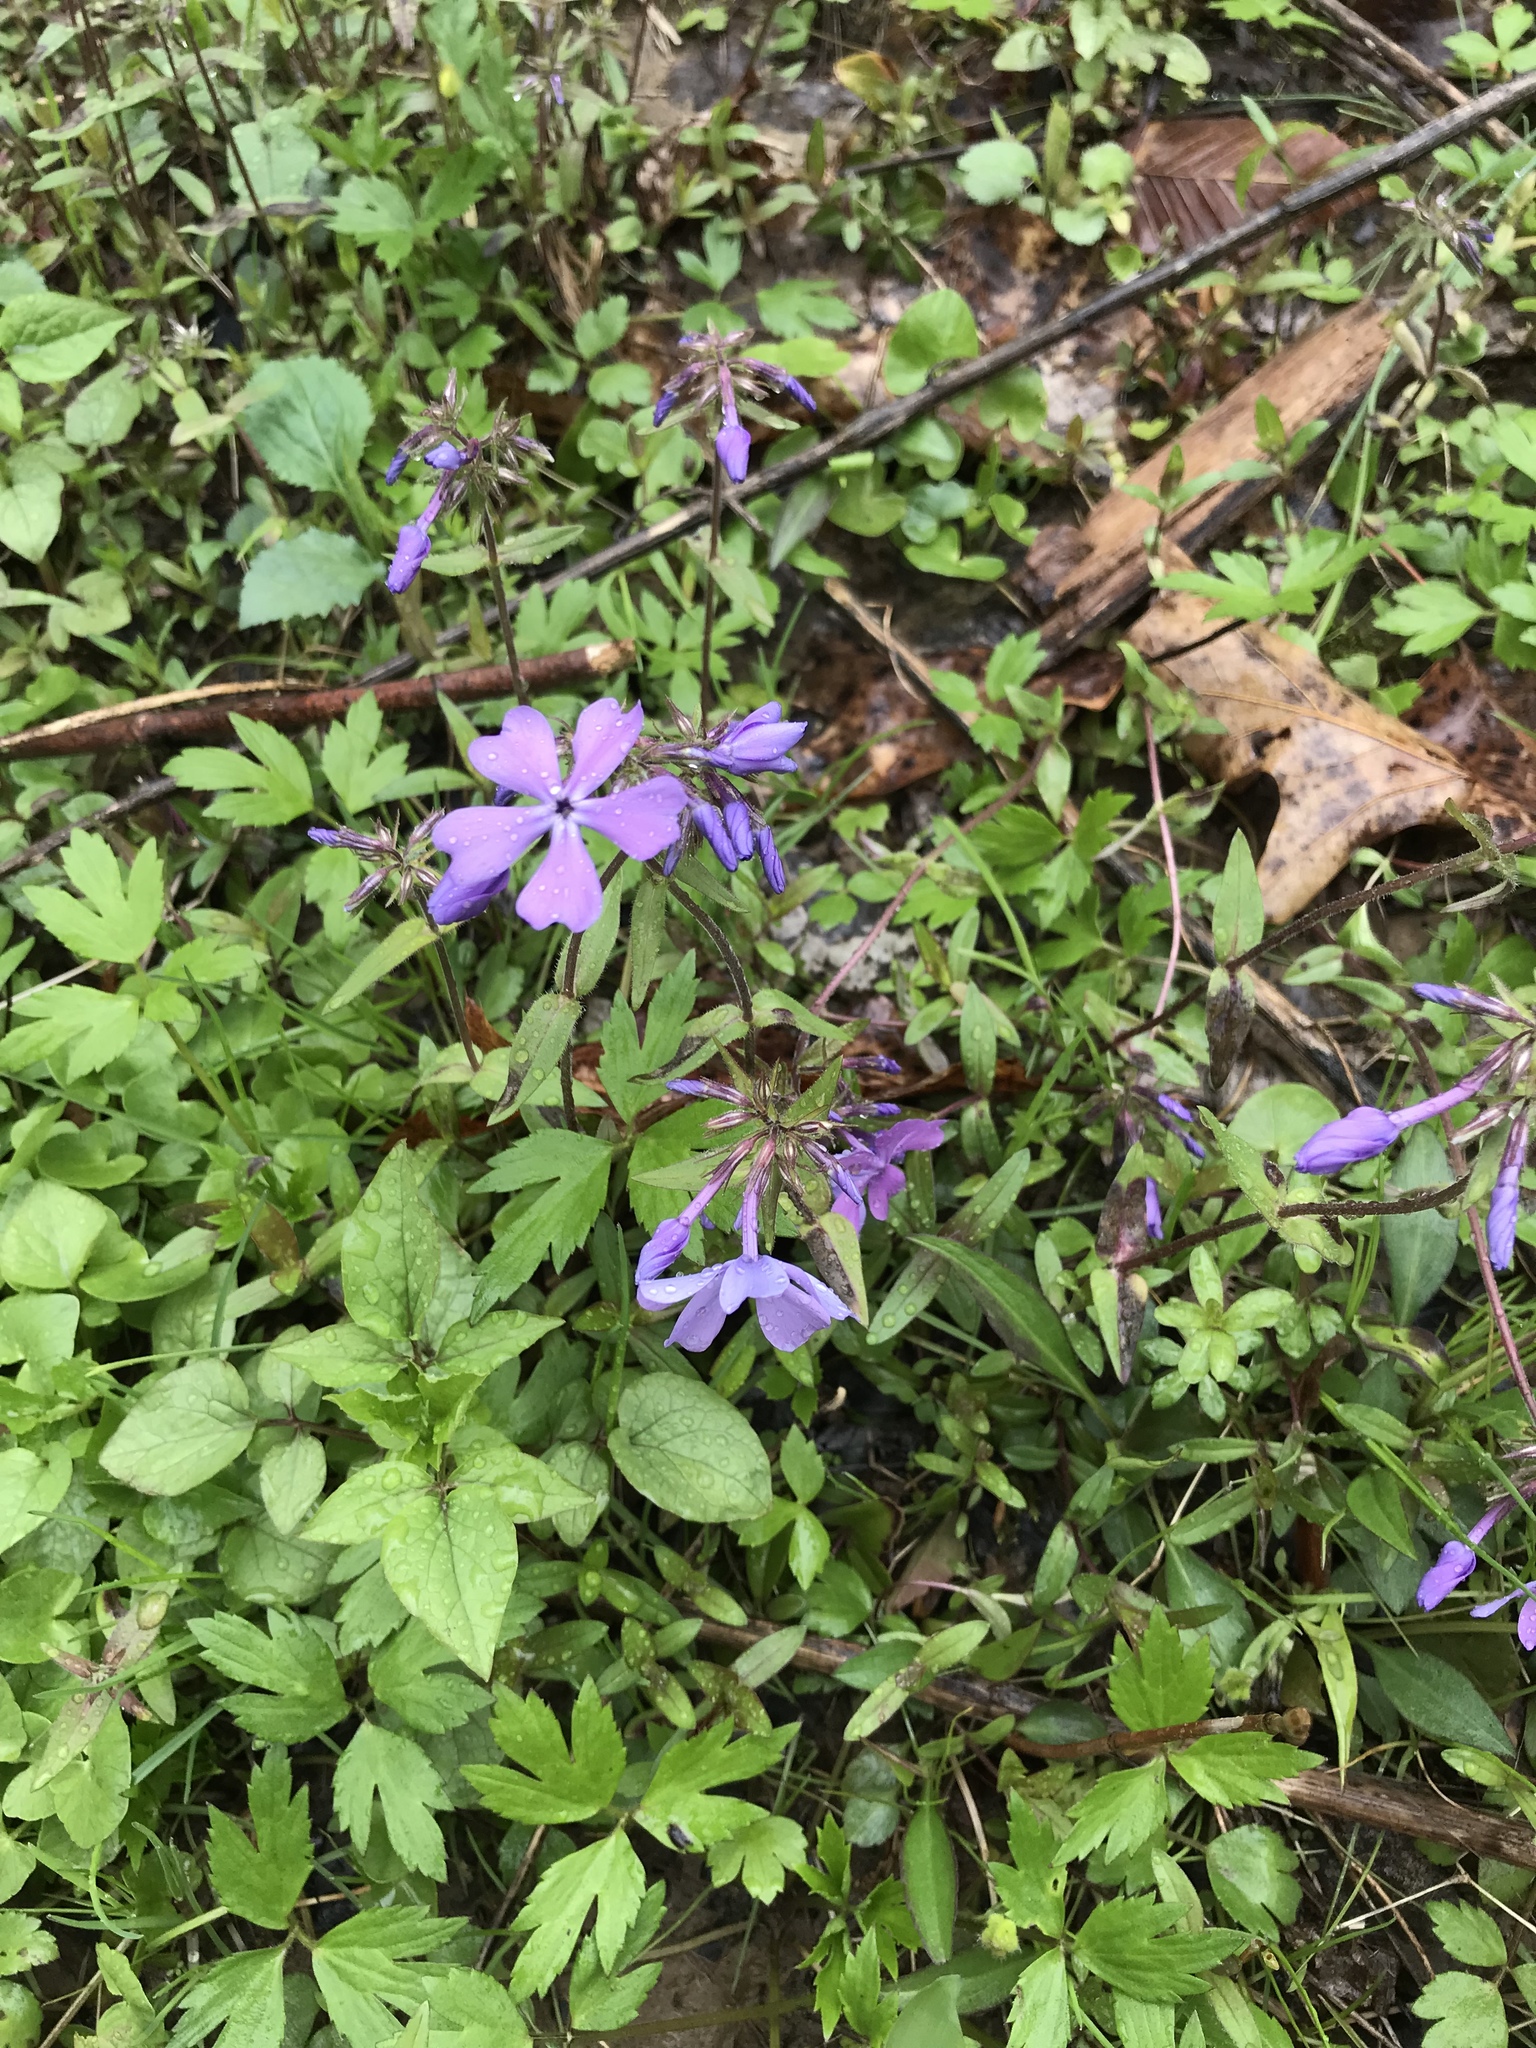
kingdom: Plantae
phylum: Tracheophyta
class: Magnoliopsida
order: Ericales
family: Polemoniaceae
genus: Phlox
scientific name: Phlox divaricata
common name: Blue phlox
